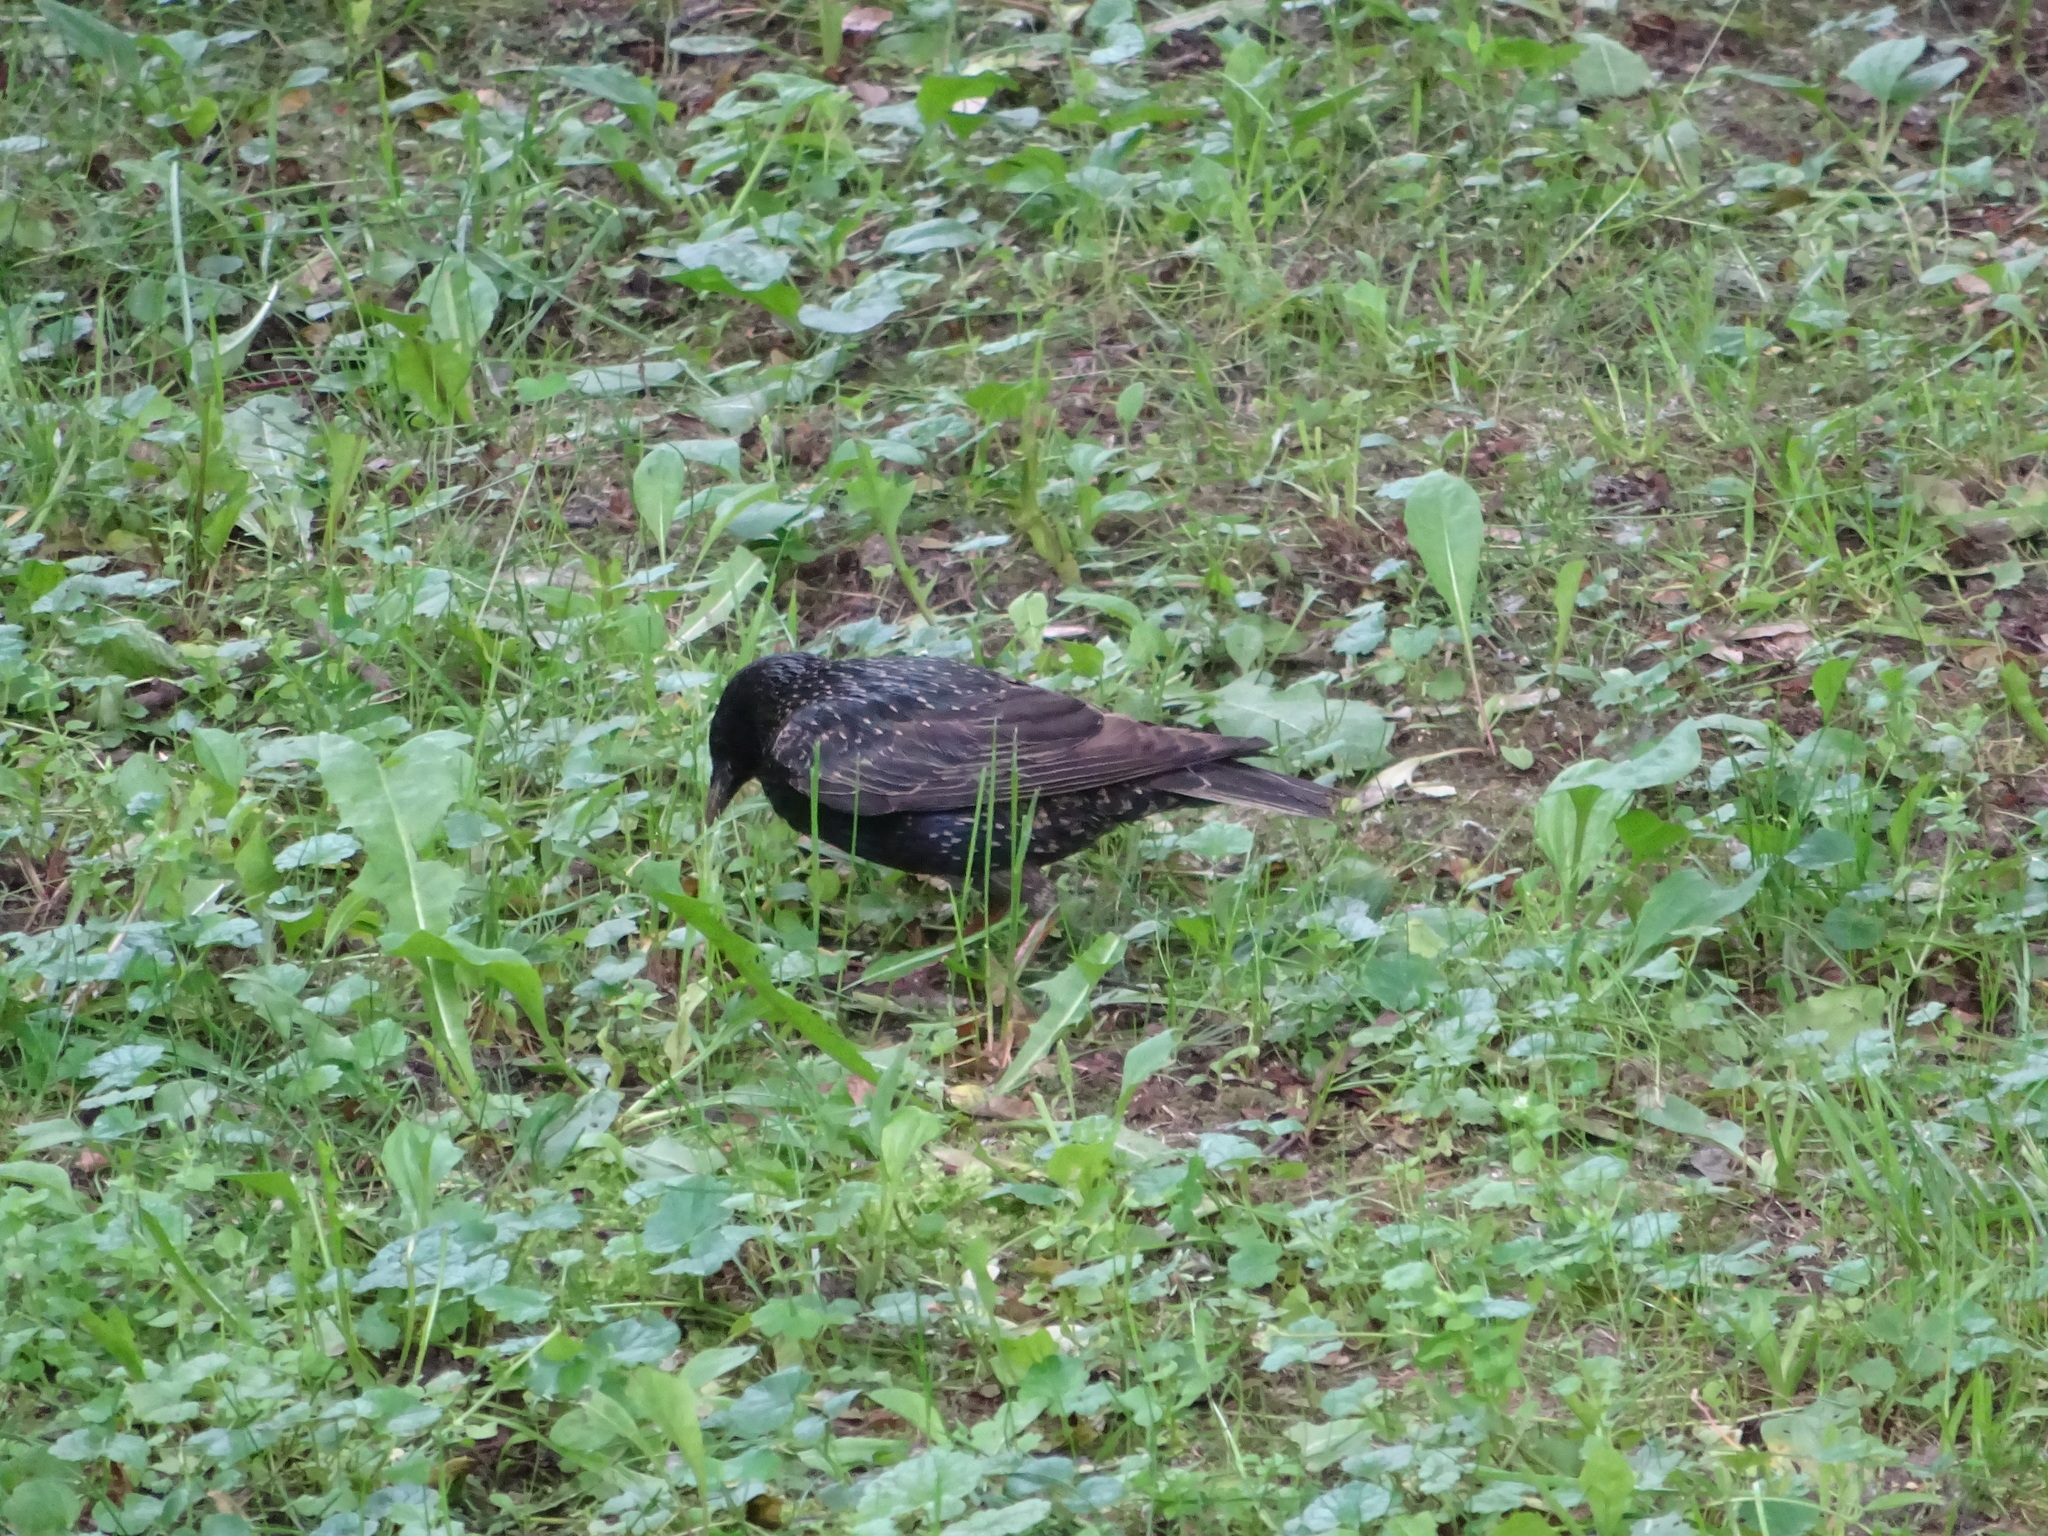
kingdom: Animalia
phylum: Chordata
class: Aves
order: Passeriformes
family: Sturnidae
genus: Sturnus
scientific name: Sturnus vulgaris
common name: Common starling
